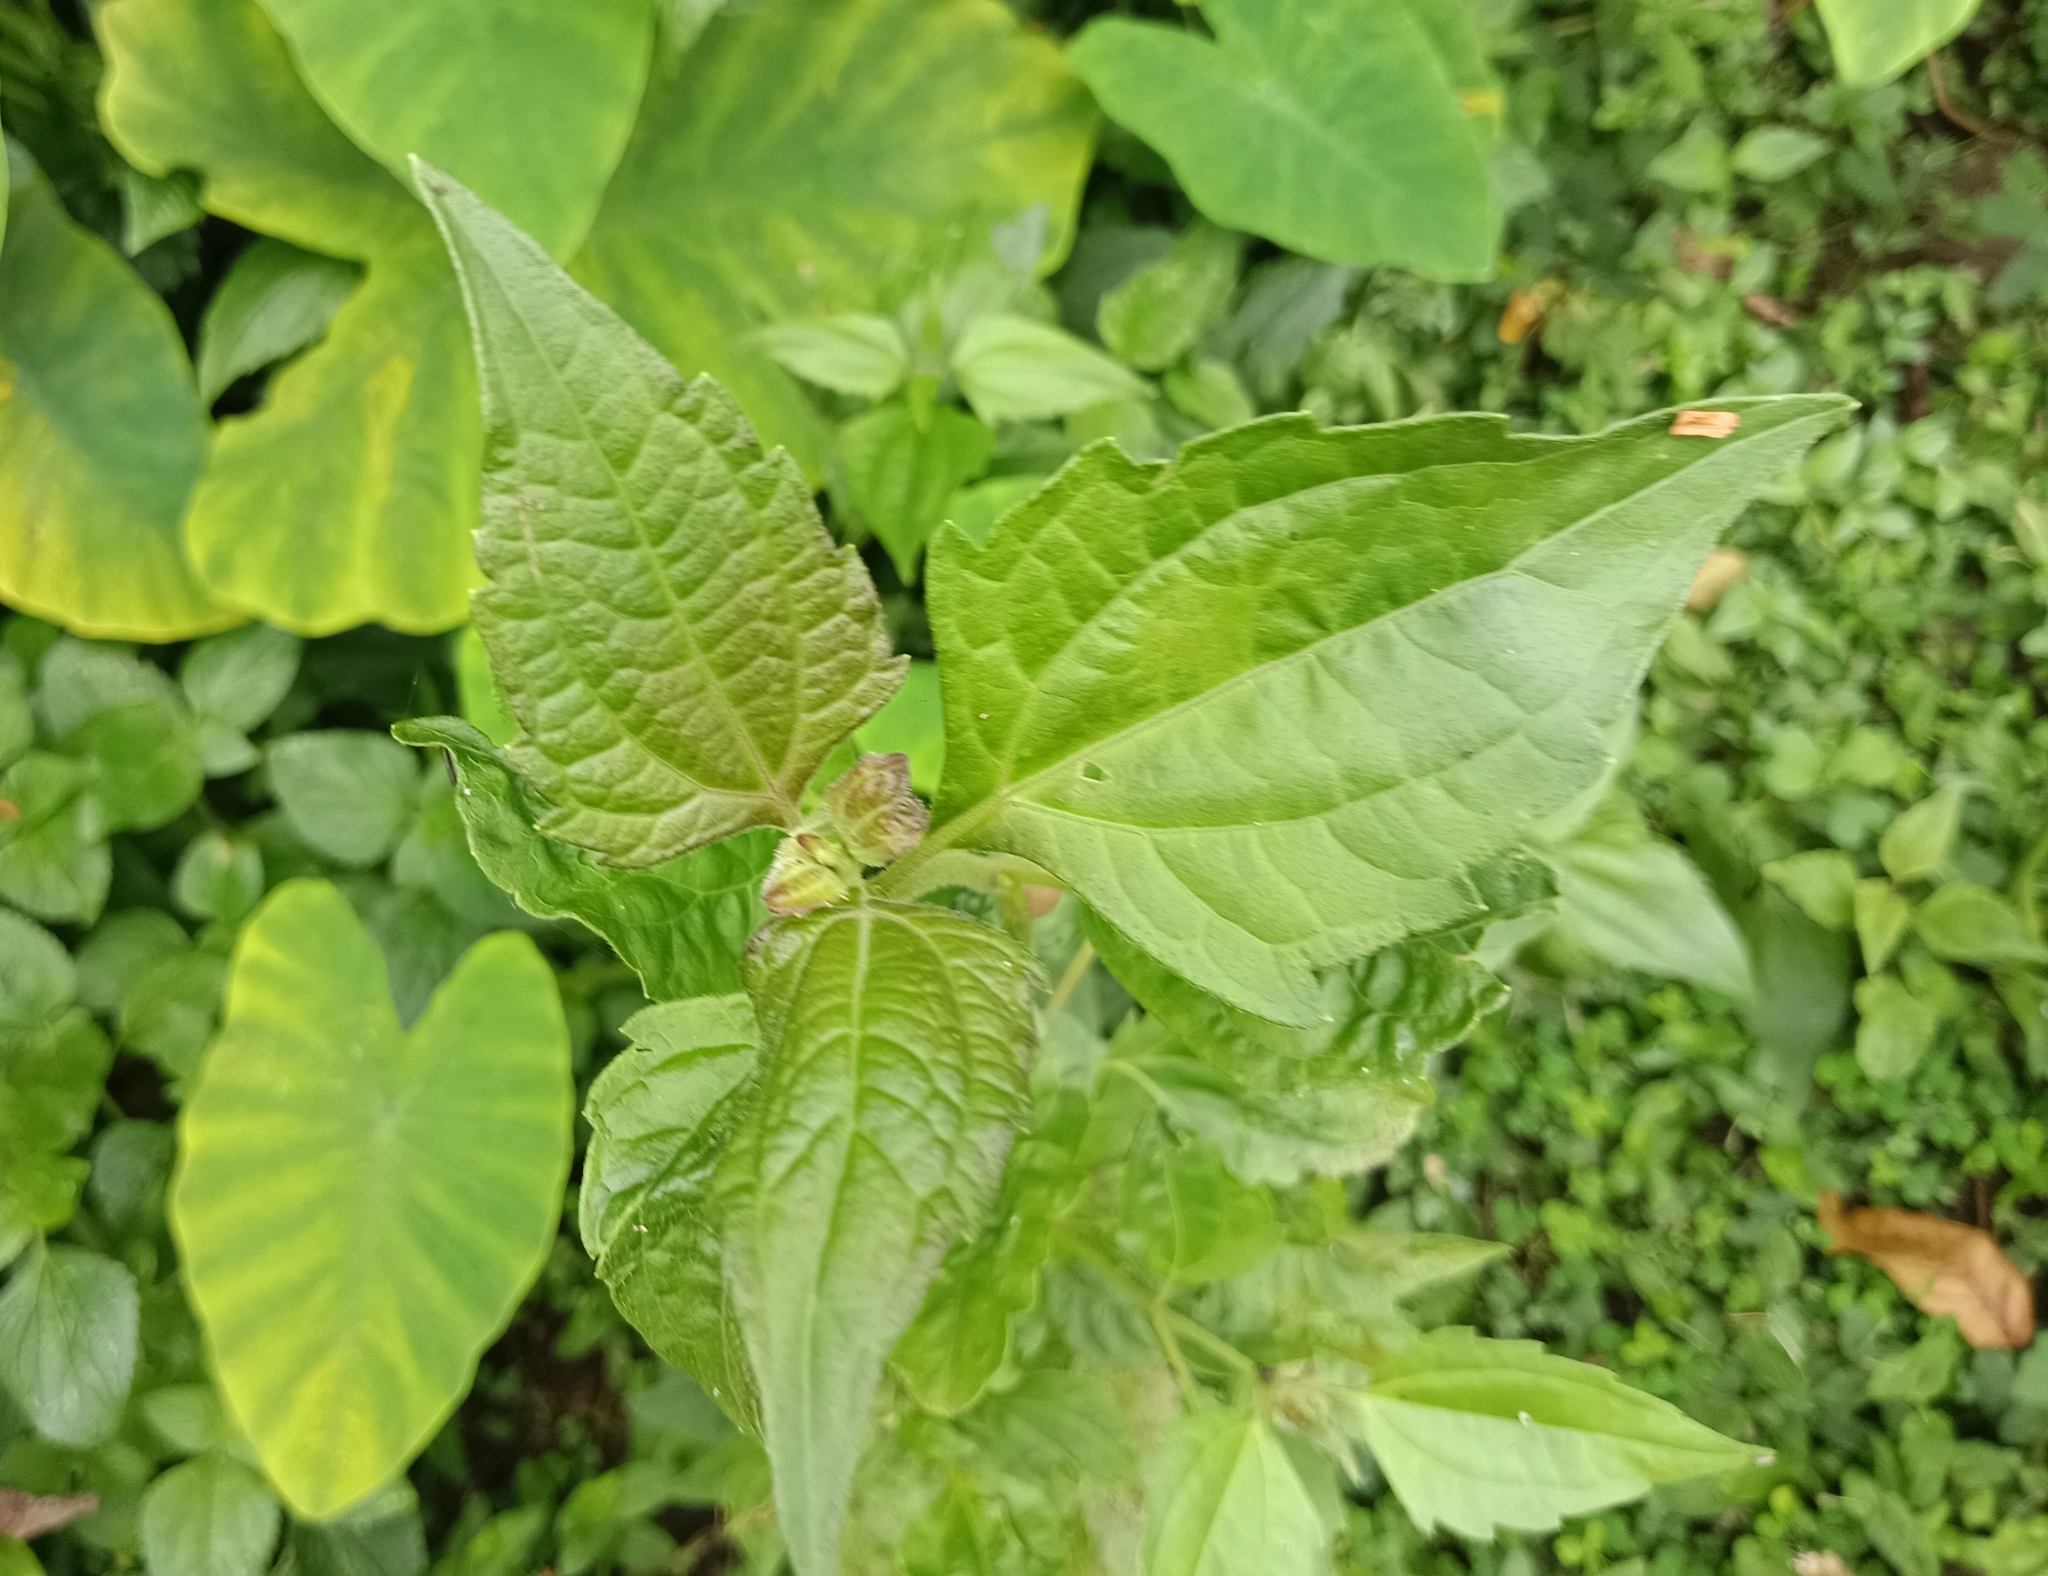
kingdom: Plantae
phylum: Tracheophyta
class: Magnoliopsida
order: Asterales
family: Asteraceae
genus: Chromolaena
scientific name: Chromolaena odorata
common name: Siamweed
